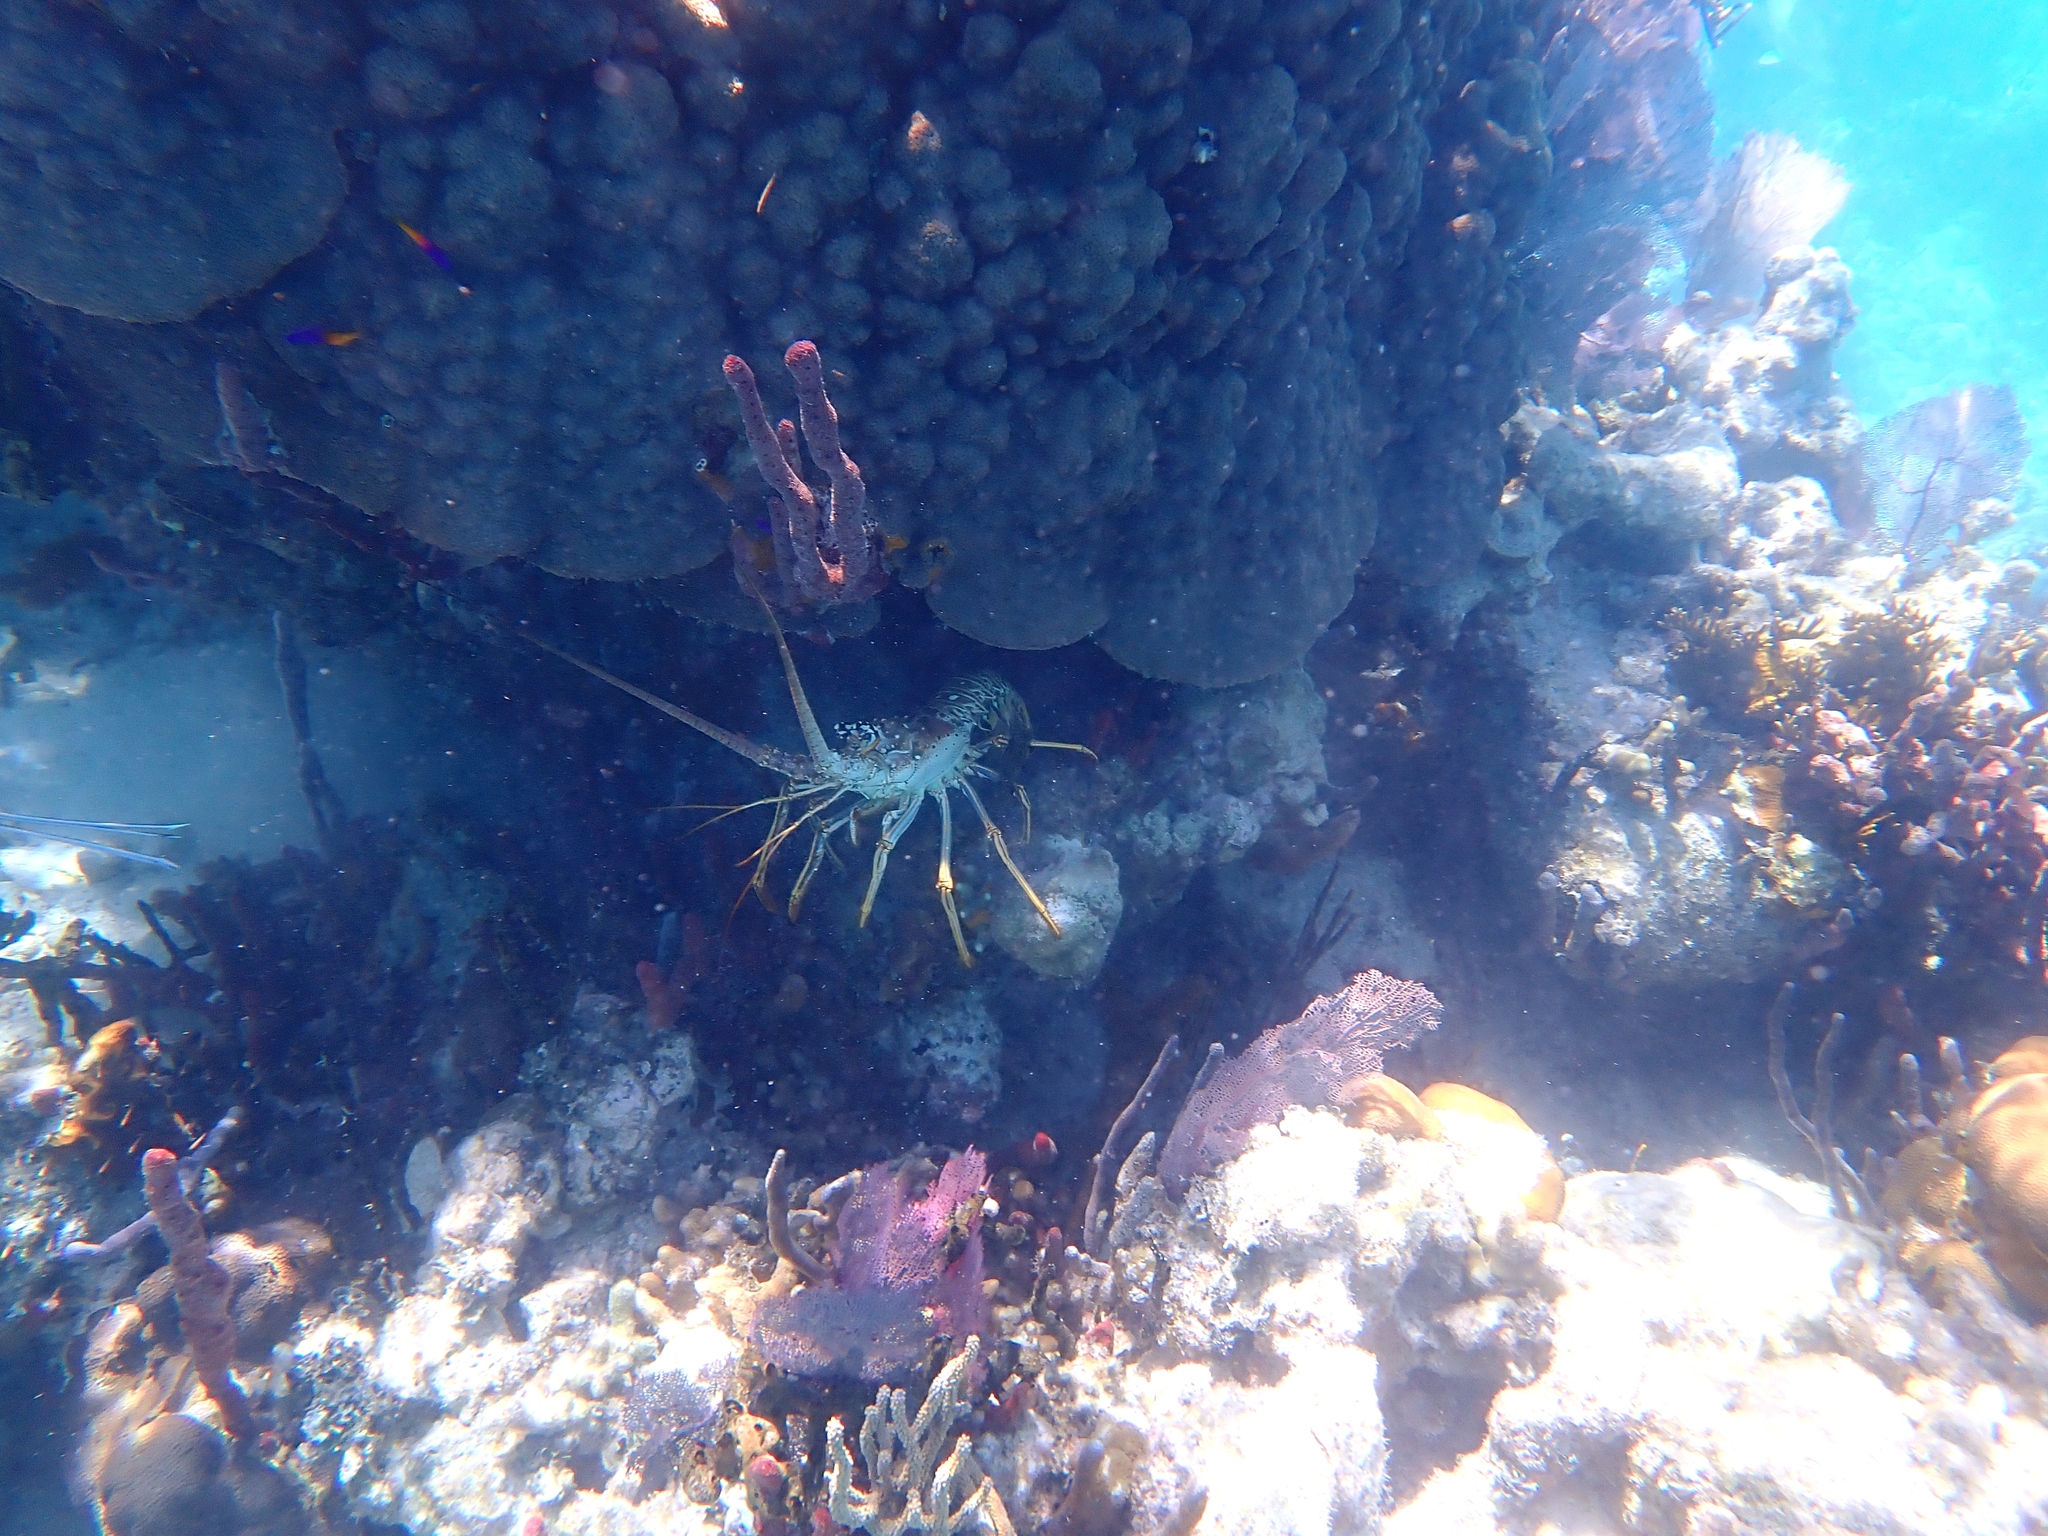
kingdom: Animalia
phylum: Arthropoda
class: Malacostraca
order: Decapoda
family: Palinuridae
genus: Panulirus
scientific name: Panulirus argus
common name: Caribbean spiny lobster
